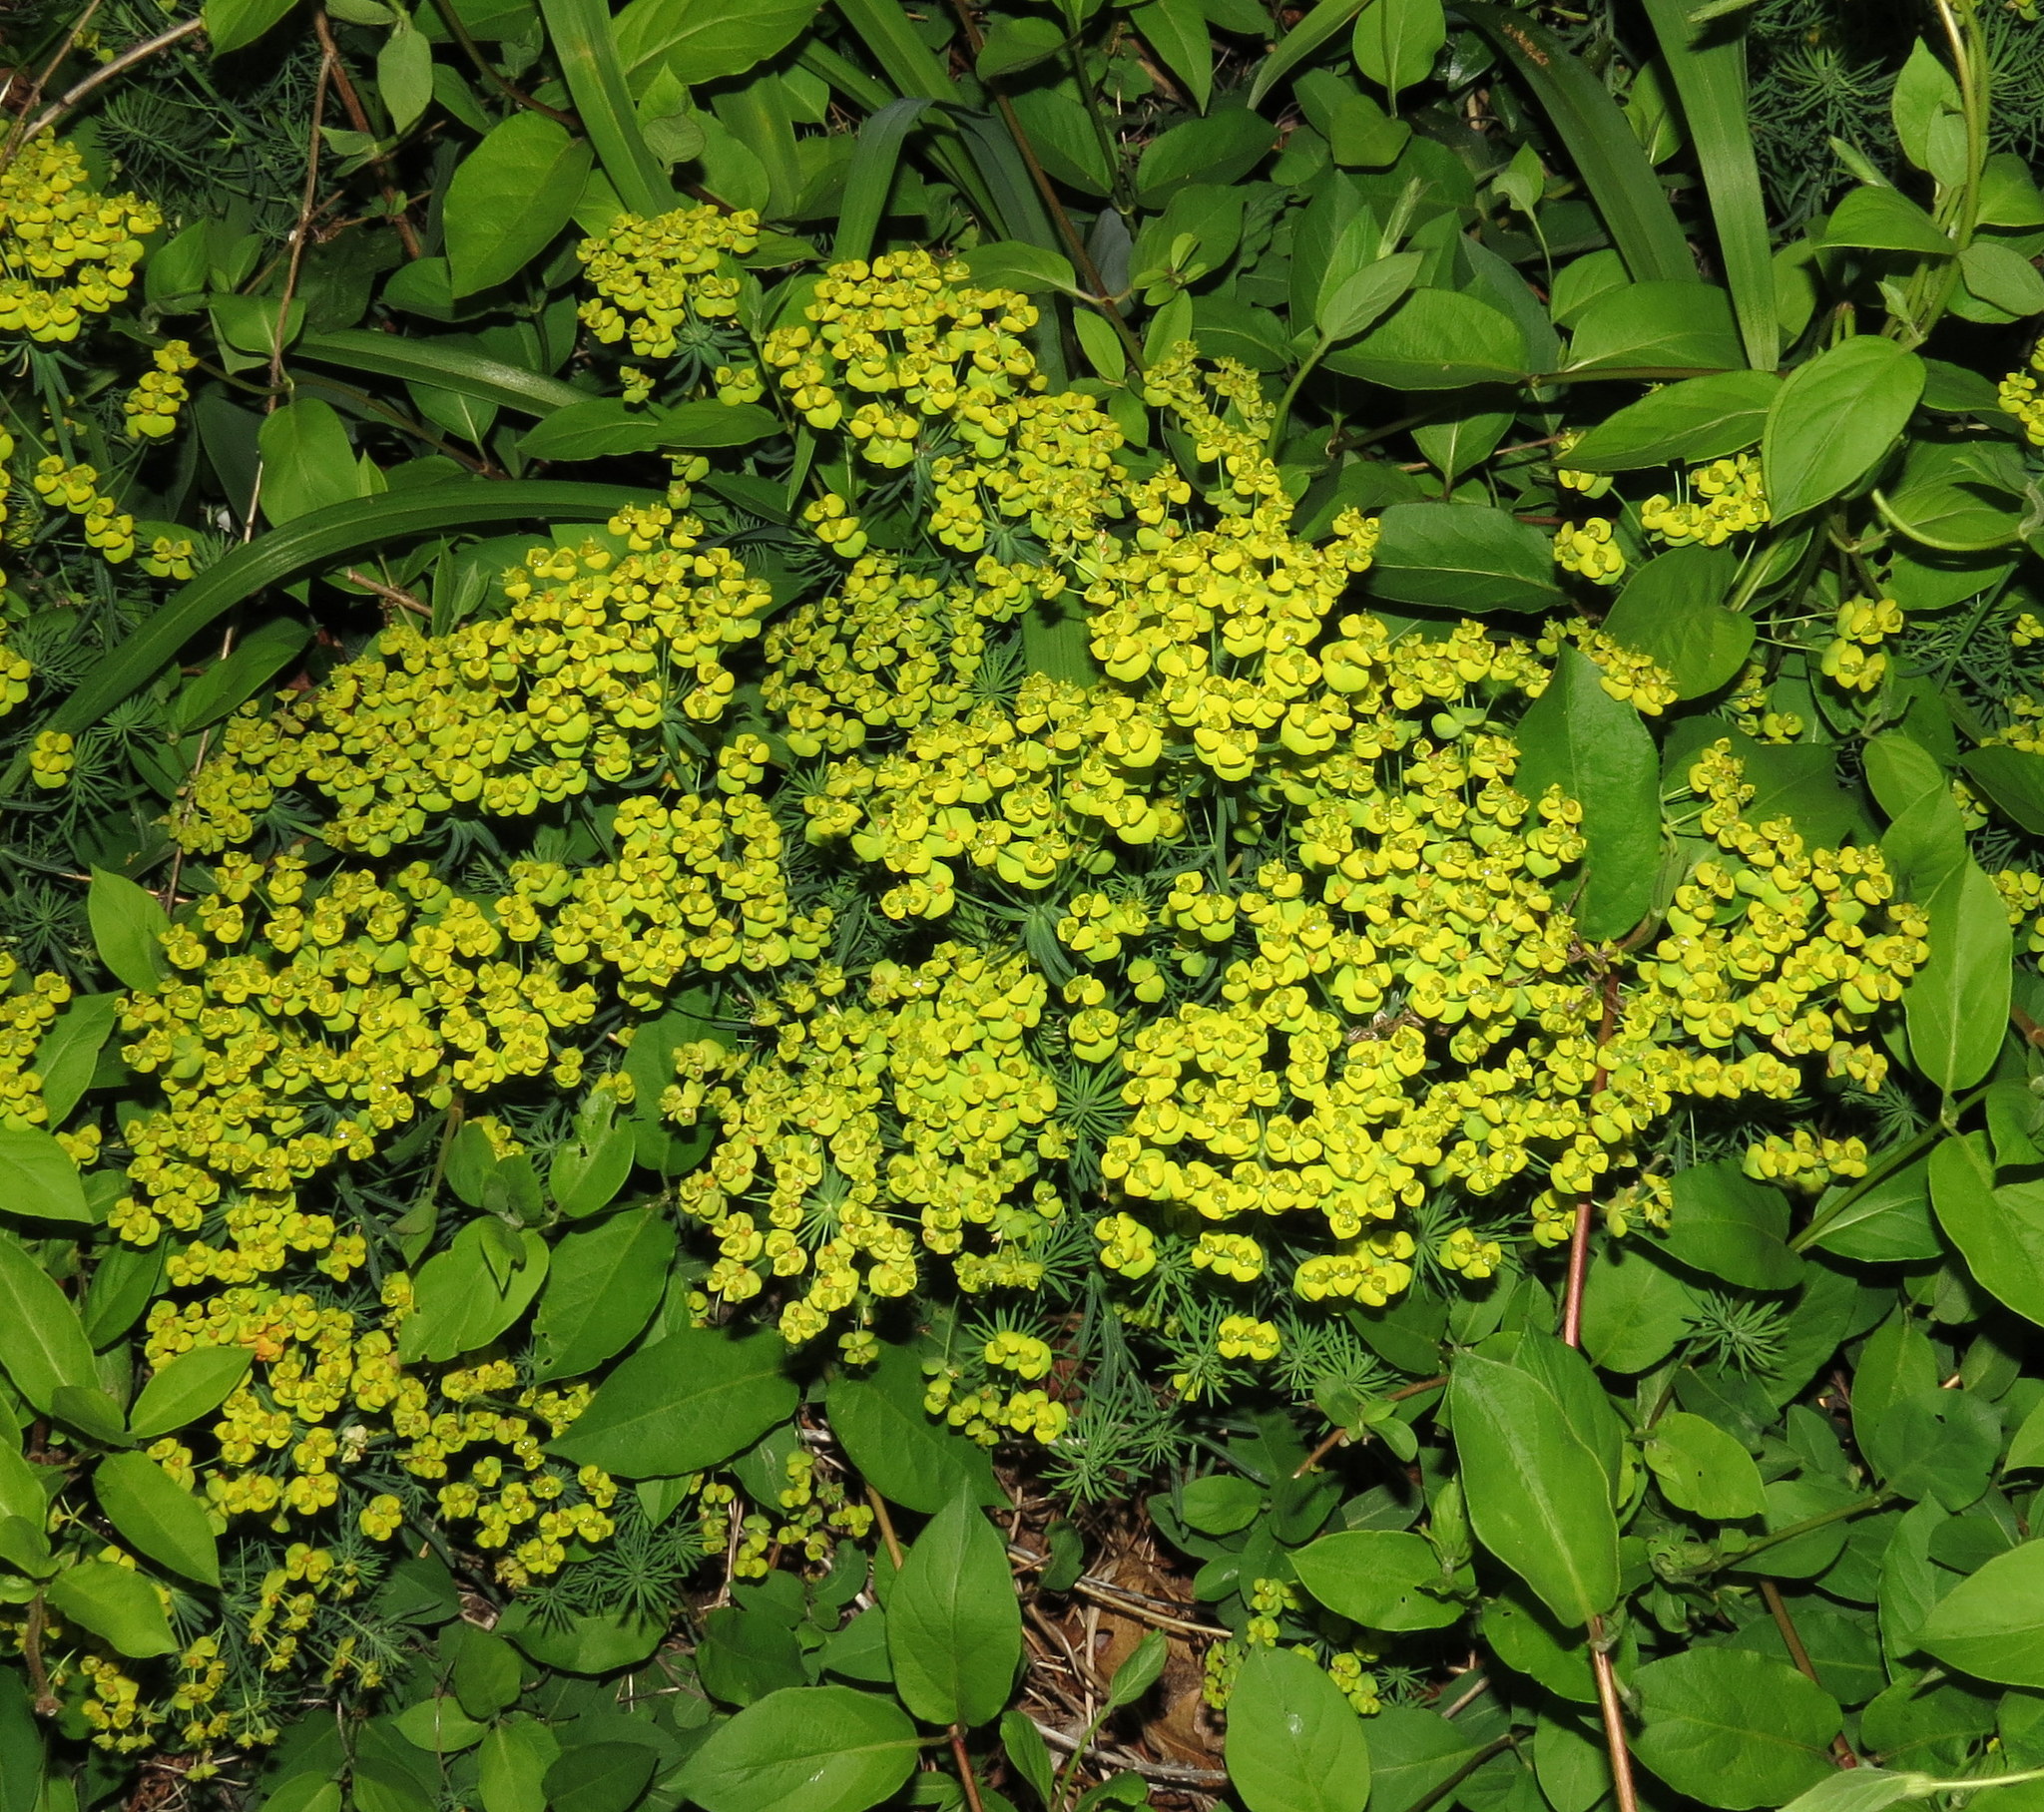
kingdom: Plantae
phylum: Tracheophyta
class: Magnoliopsida
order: Malpighiales
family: Euphorbiaceae
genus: Euphorbia
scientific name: Euphorbia cyparissias
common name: Cypress spurge
